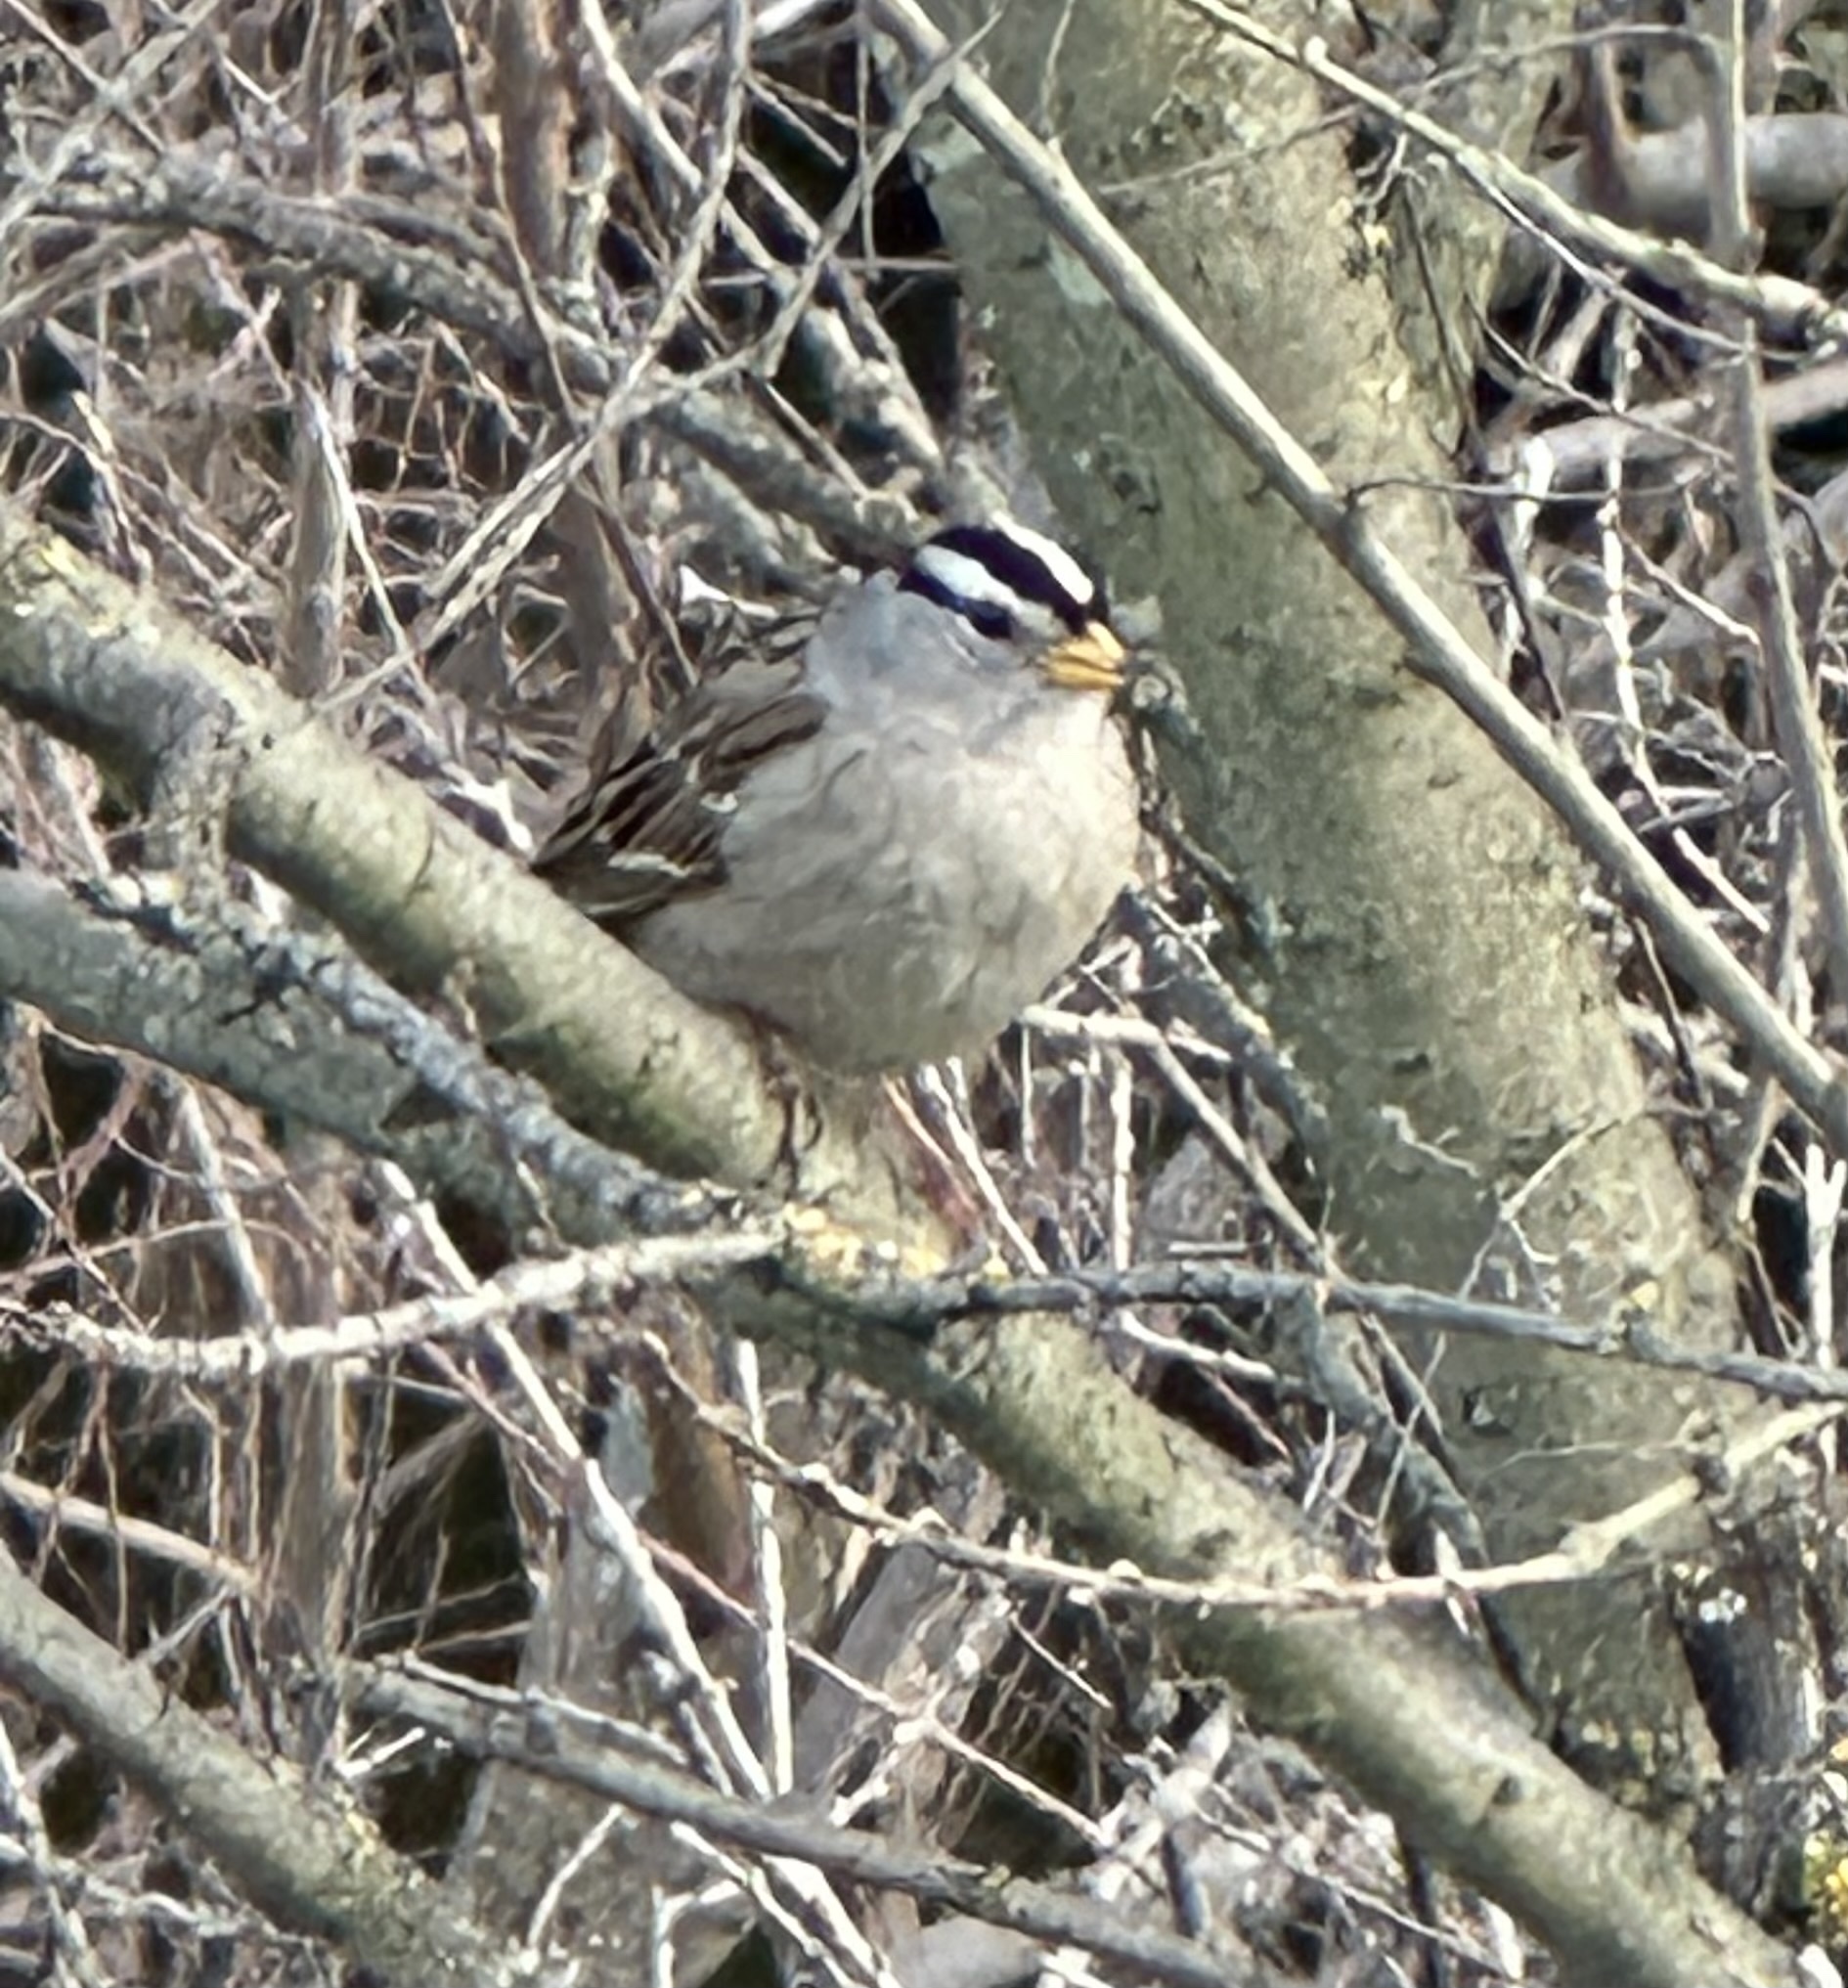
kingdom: Animalia
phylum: Chordata
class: Aves
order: Passeriformes
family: Passerellidae
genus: Zonotrichia
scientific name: Zonotrichia leucophrys
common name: White-crowned sparrow
